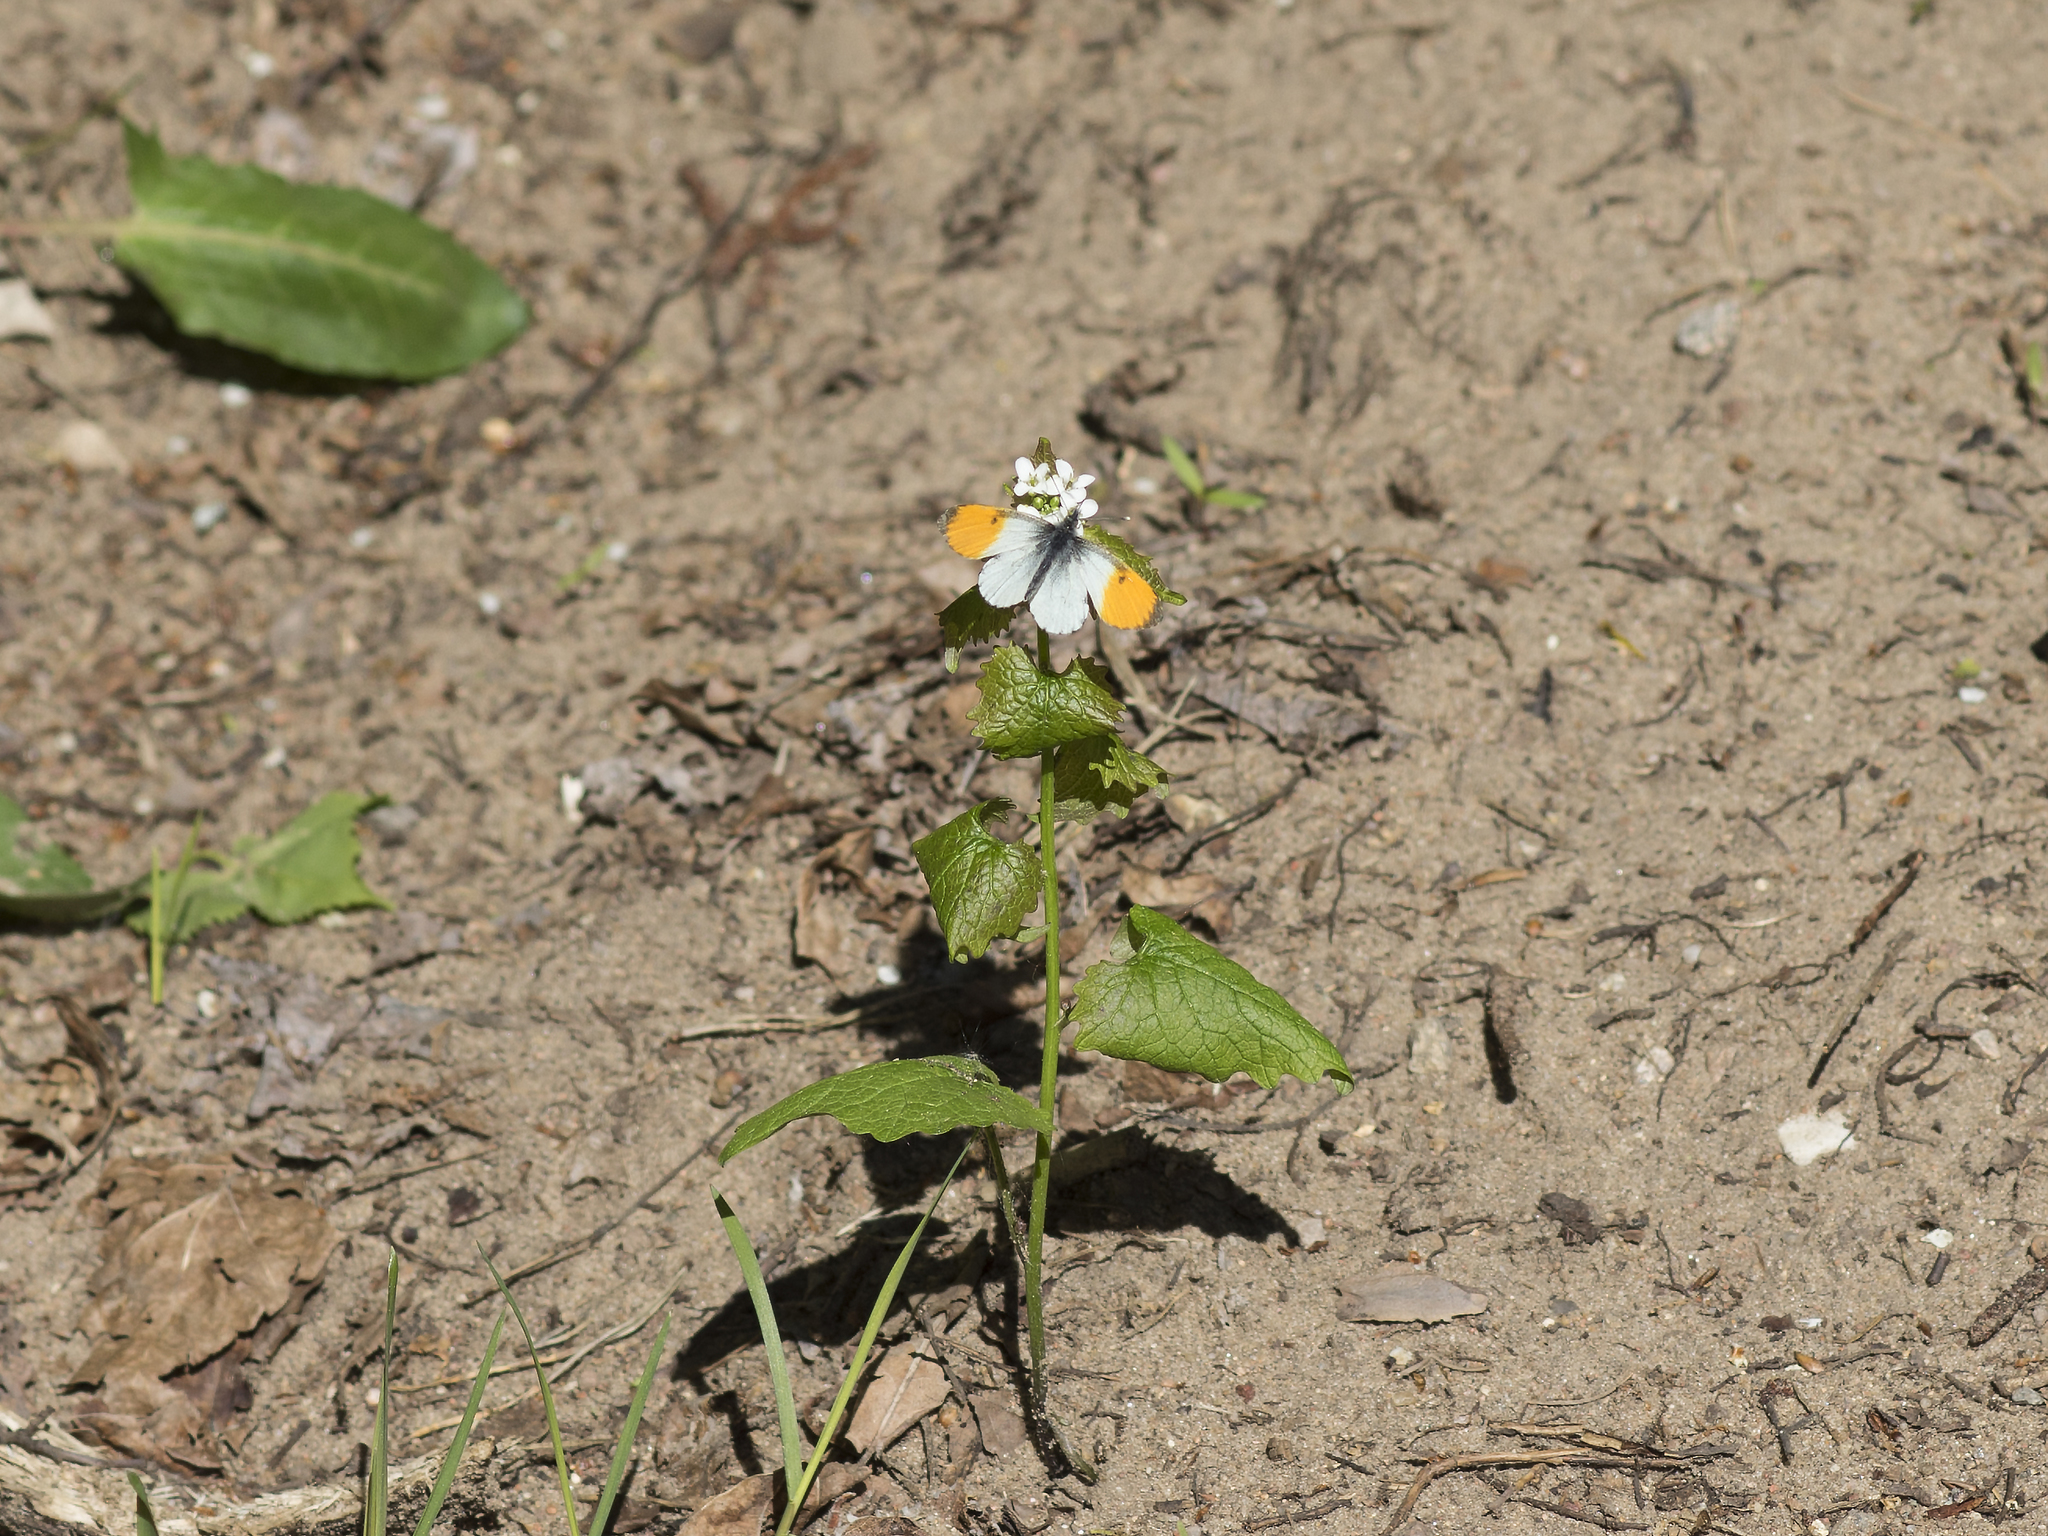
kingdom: Animalia
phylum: Arthropoda
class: Insecta
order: Lepidoptera
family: Pieridae
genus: Anthocharis
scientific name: Anthocharis cardamines
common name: Orange-tip
